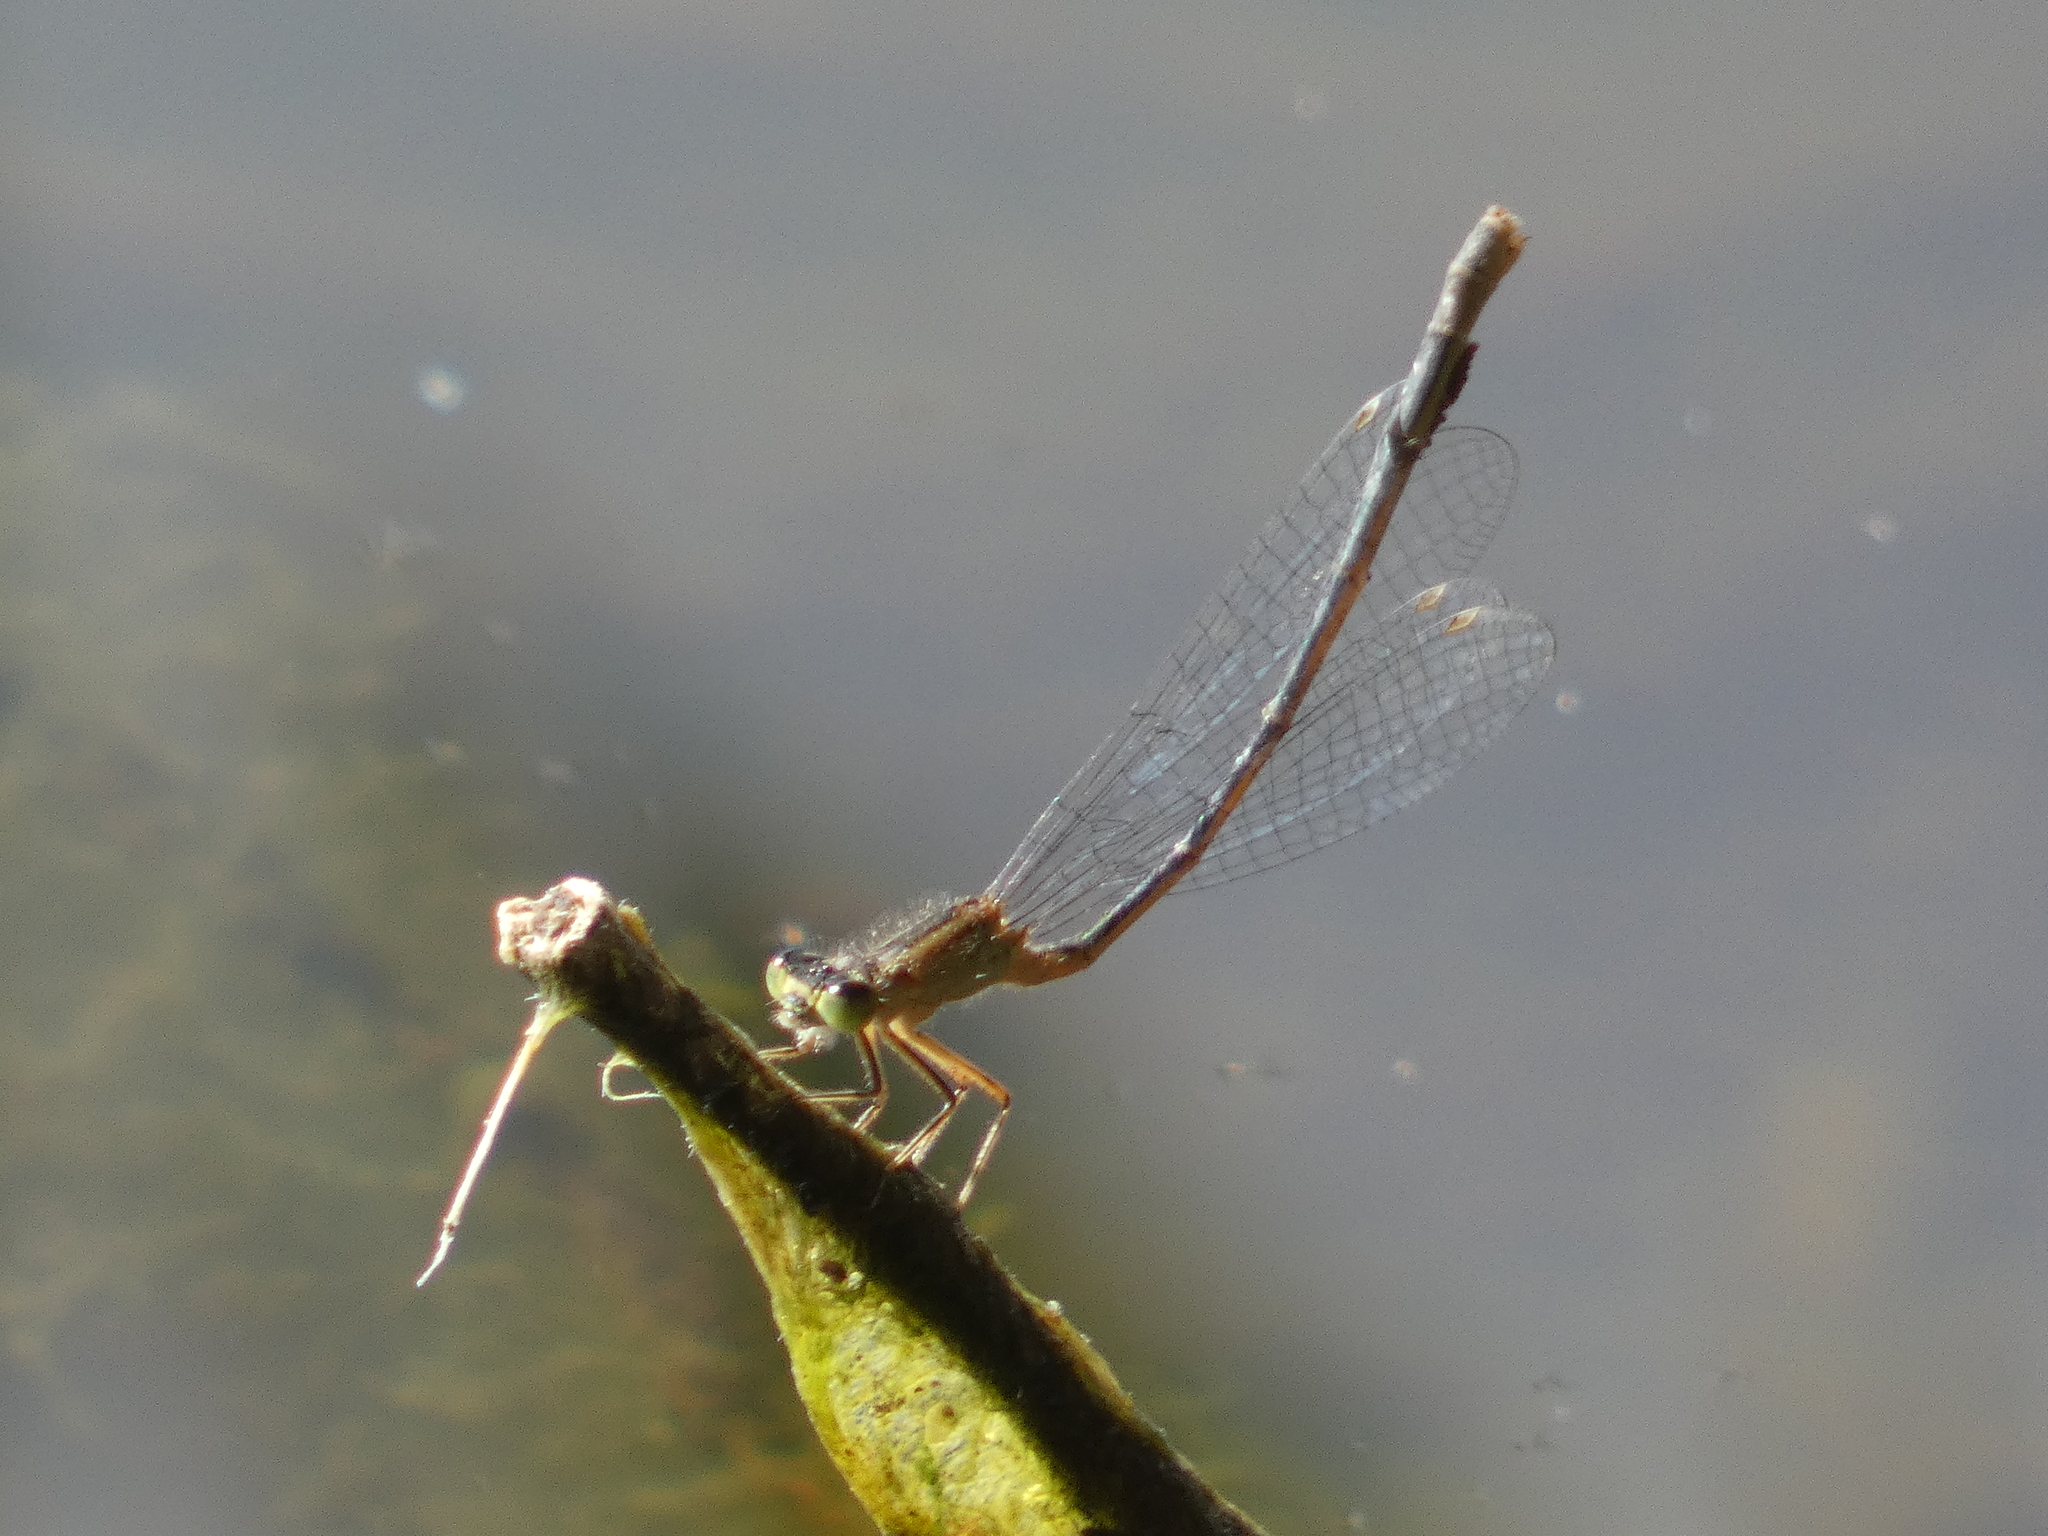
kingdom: Animalia
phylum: Arthropoda
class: Insecta
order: Odonata
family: Coenagrionidae
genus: Erythromma
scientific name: Erythromma viridulum
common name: Small red-eyed damselfly
